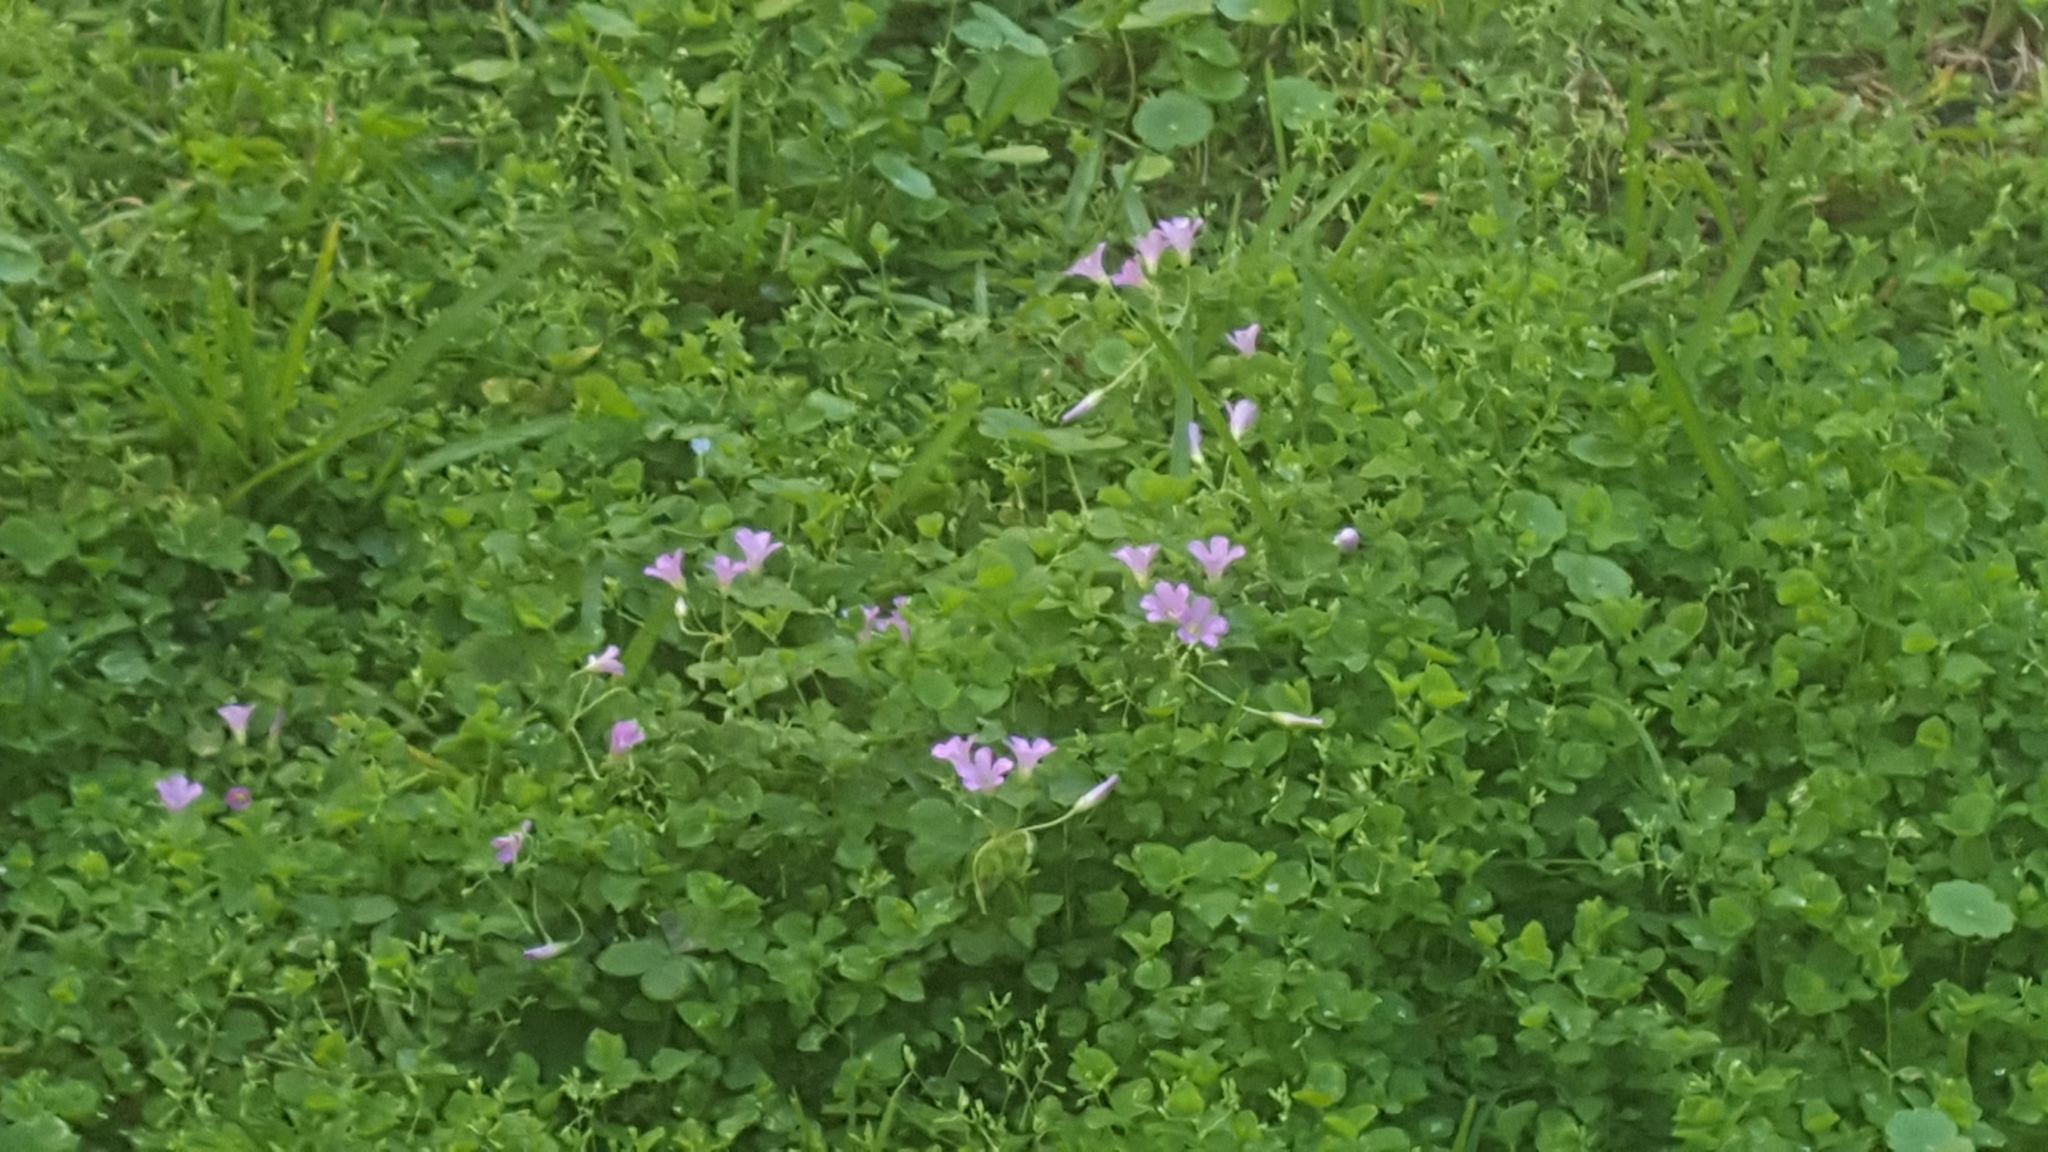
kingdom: Plantae
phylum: Tracheophyta
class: Magnoliopsida
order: Oxalidales
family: Oxalidaceae
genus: Oxalis
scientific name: Oxalis debilis
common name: Large-flowered pink-sorrel
